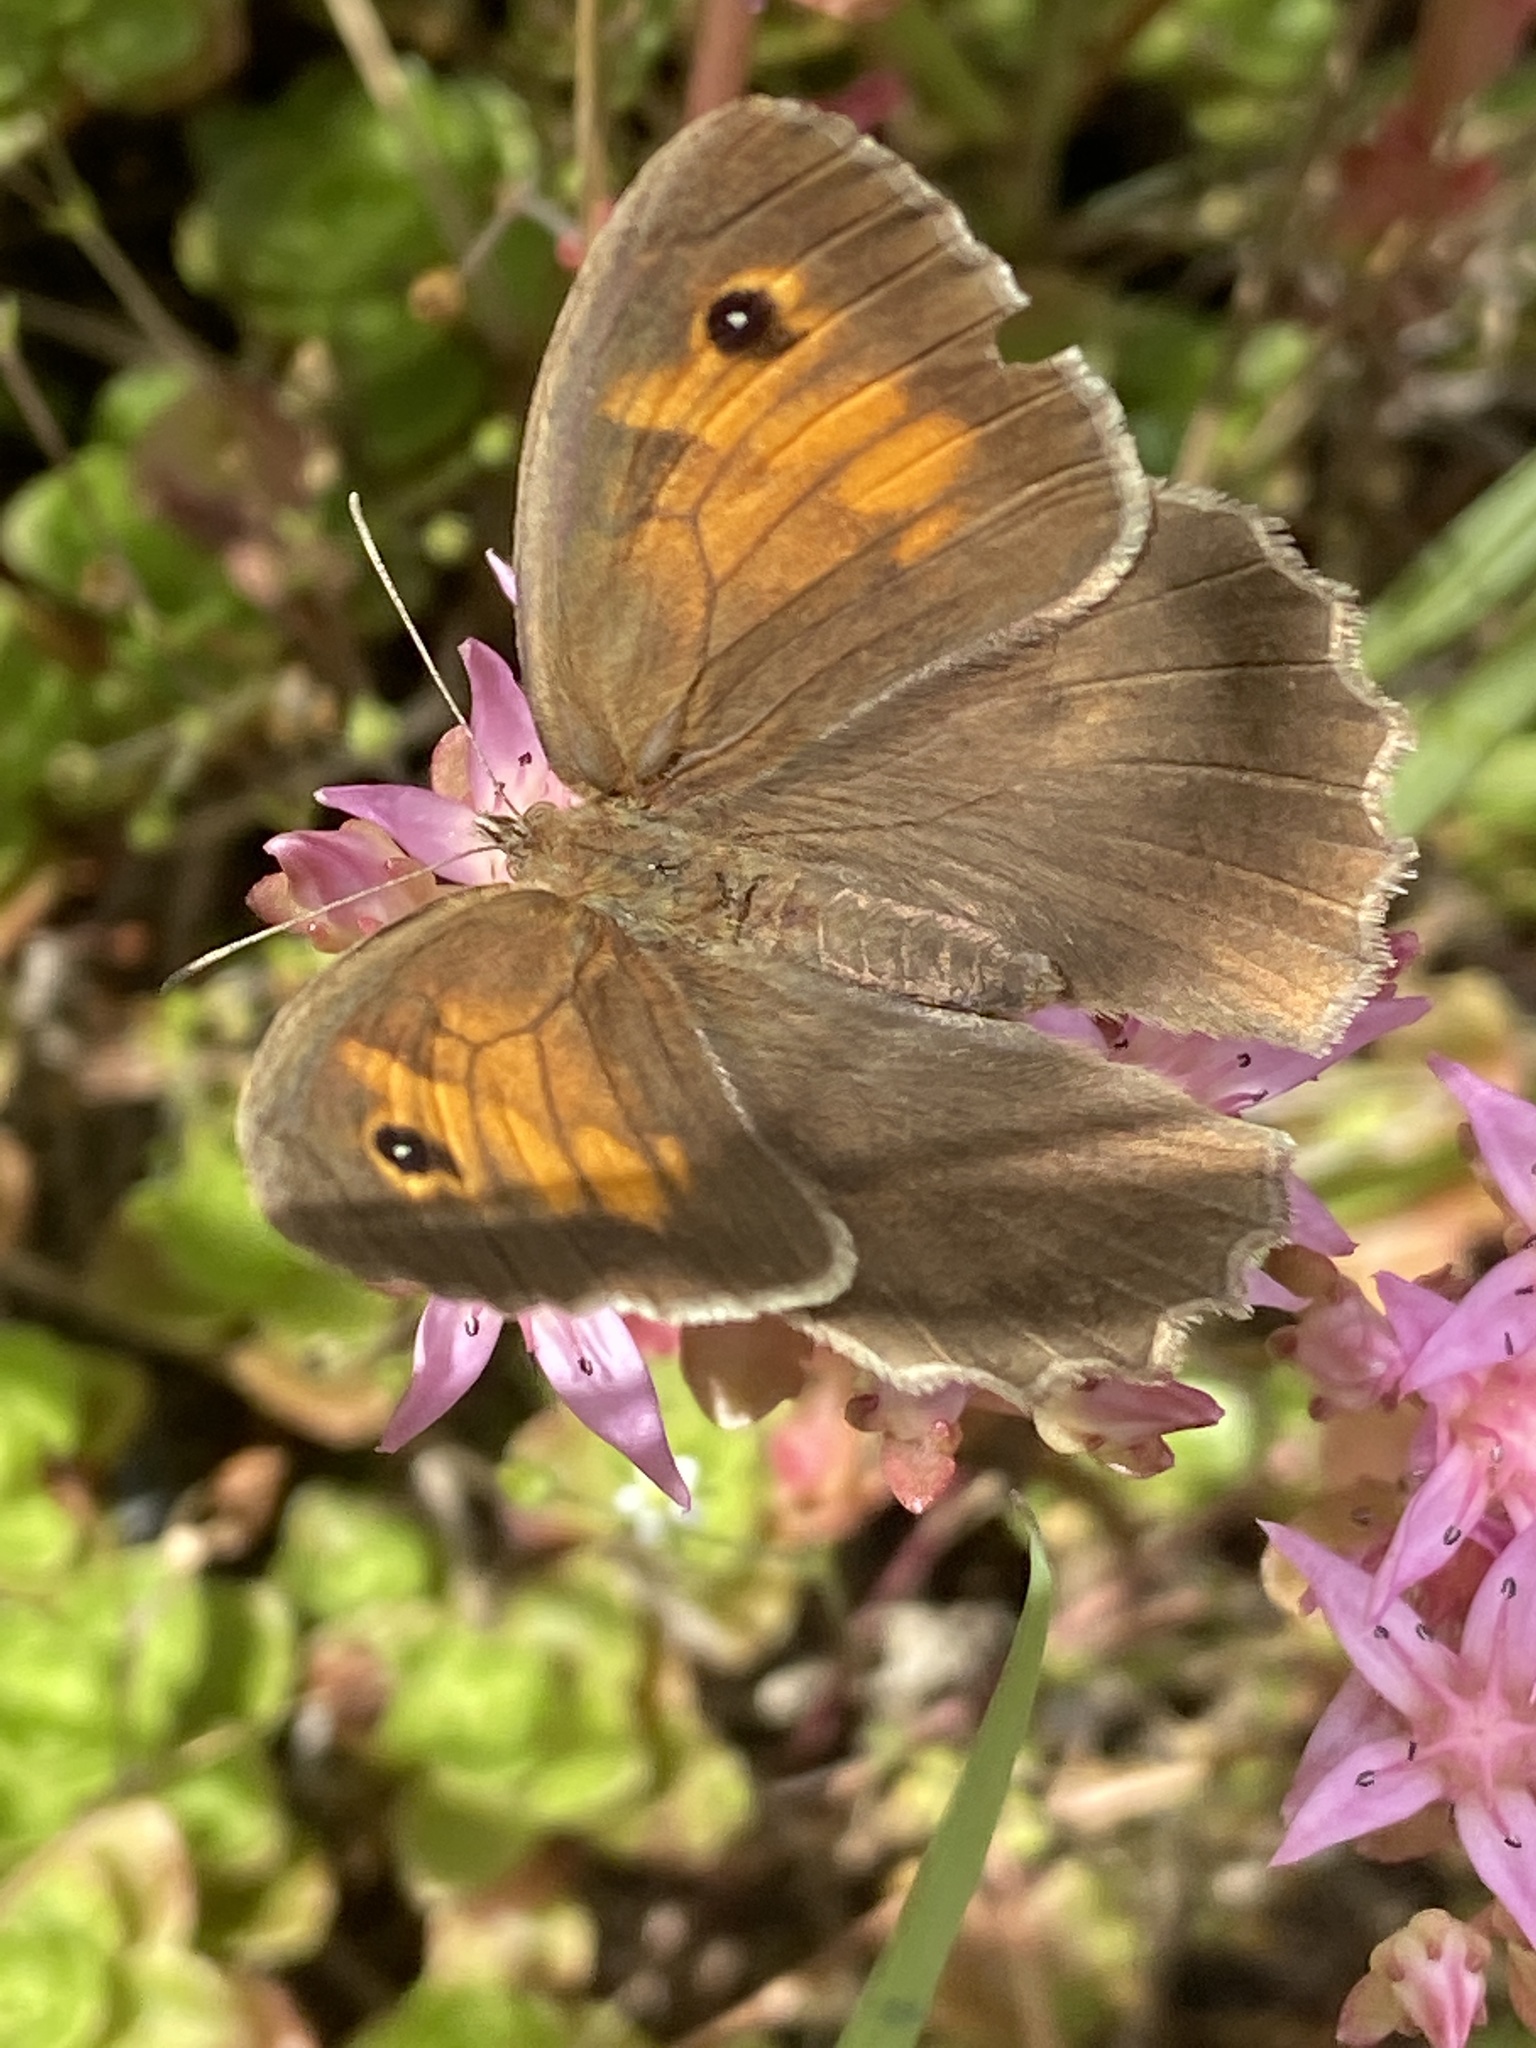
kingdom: Animalia
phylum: Arthropoda
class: Insecta
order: Lepidoptera
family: Nymphalidae
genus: Maniola
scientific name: Maniola jurtina
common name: Meadow brown
